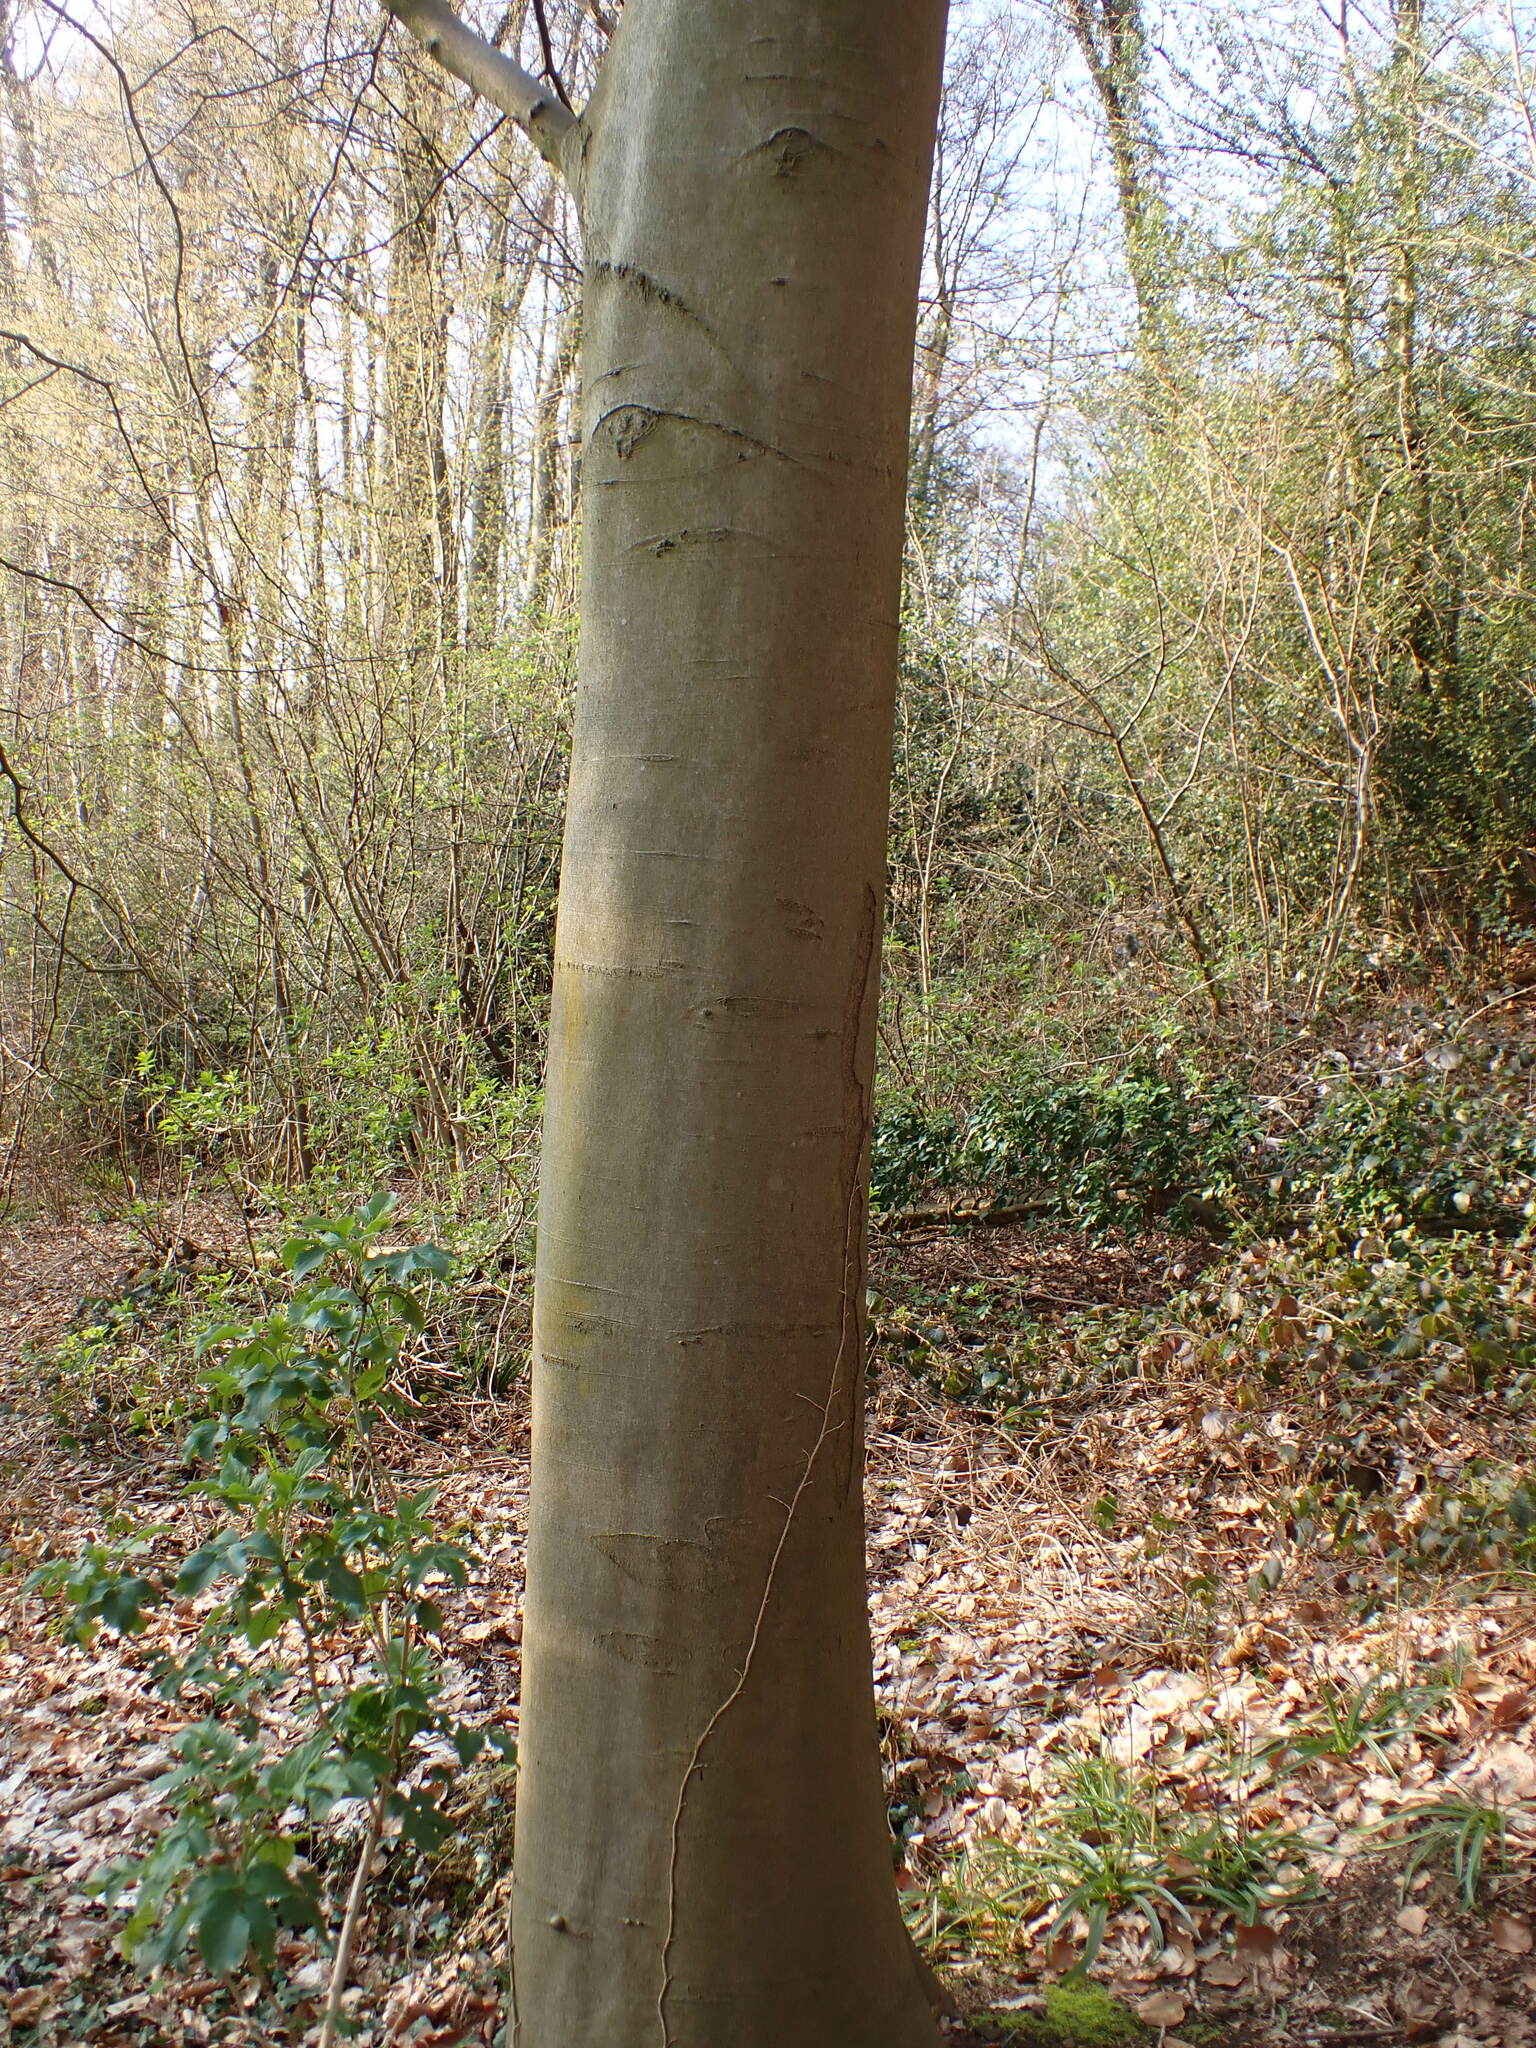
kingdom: Plantae
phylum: Tracheophyta
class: Magnoliopsida
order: Fagales
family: Fagaceae
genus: Fagus
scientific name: Fagus sylvatica
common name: Beech
